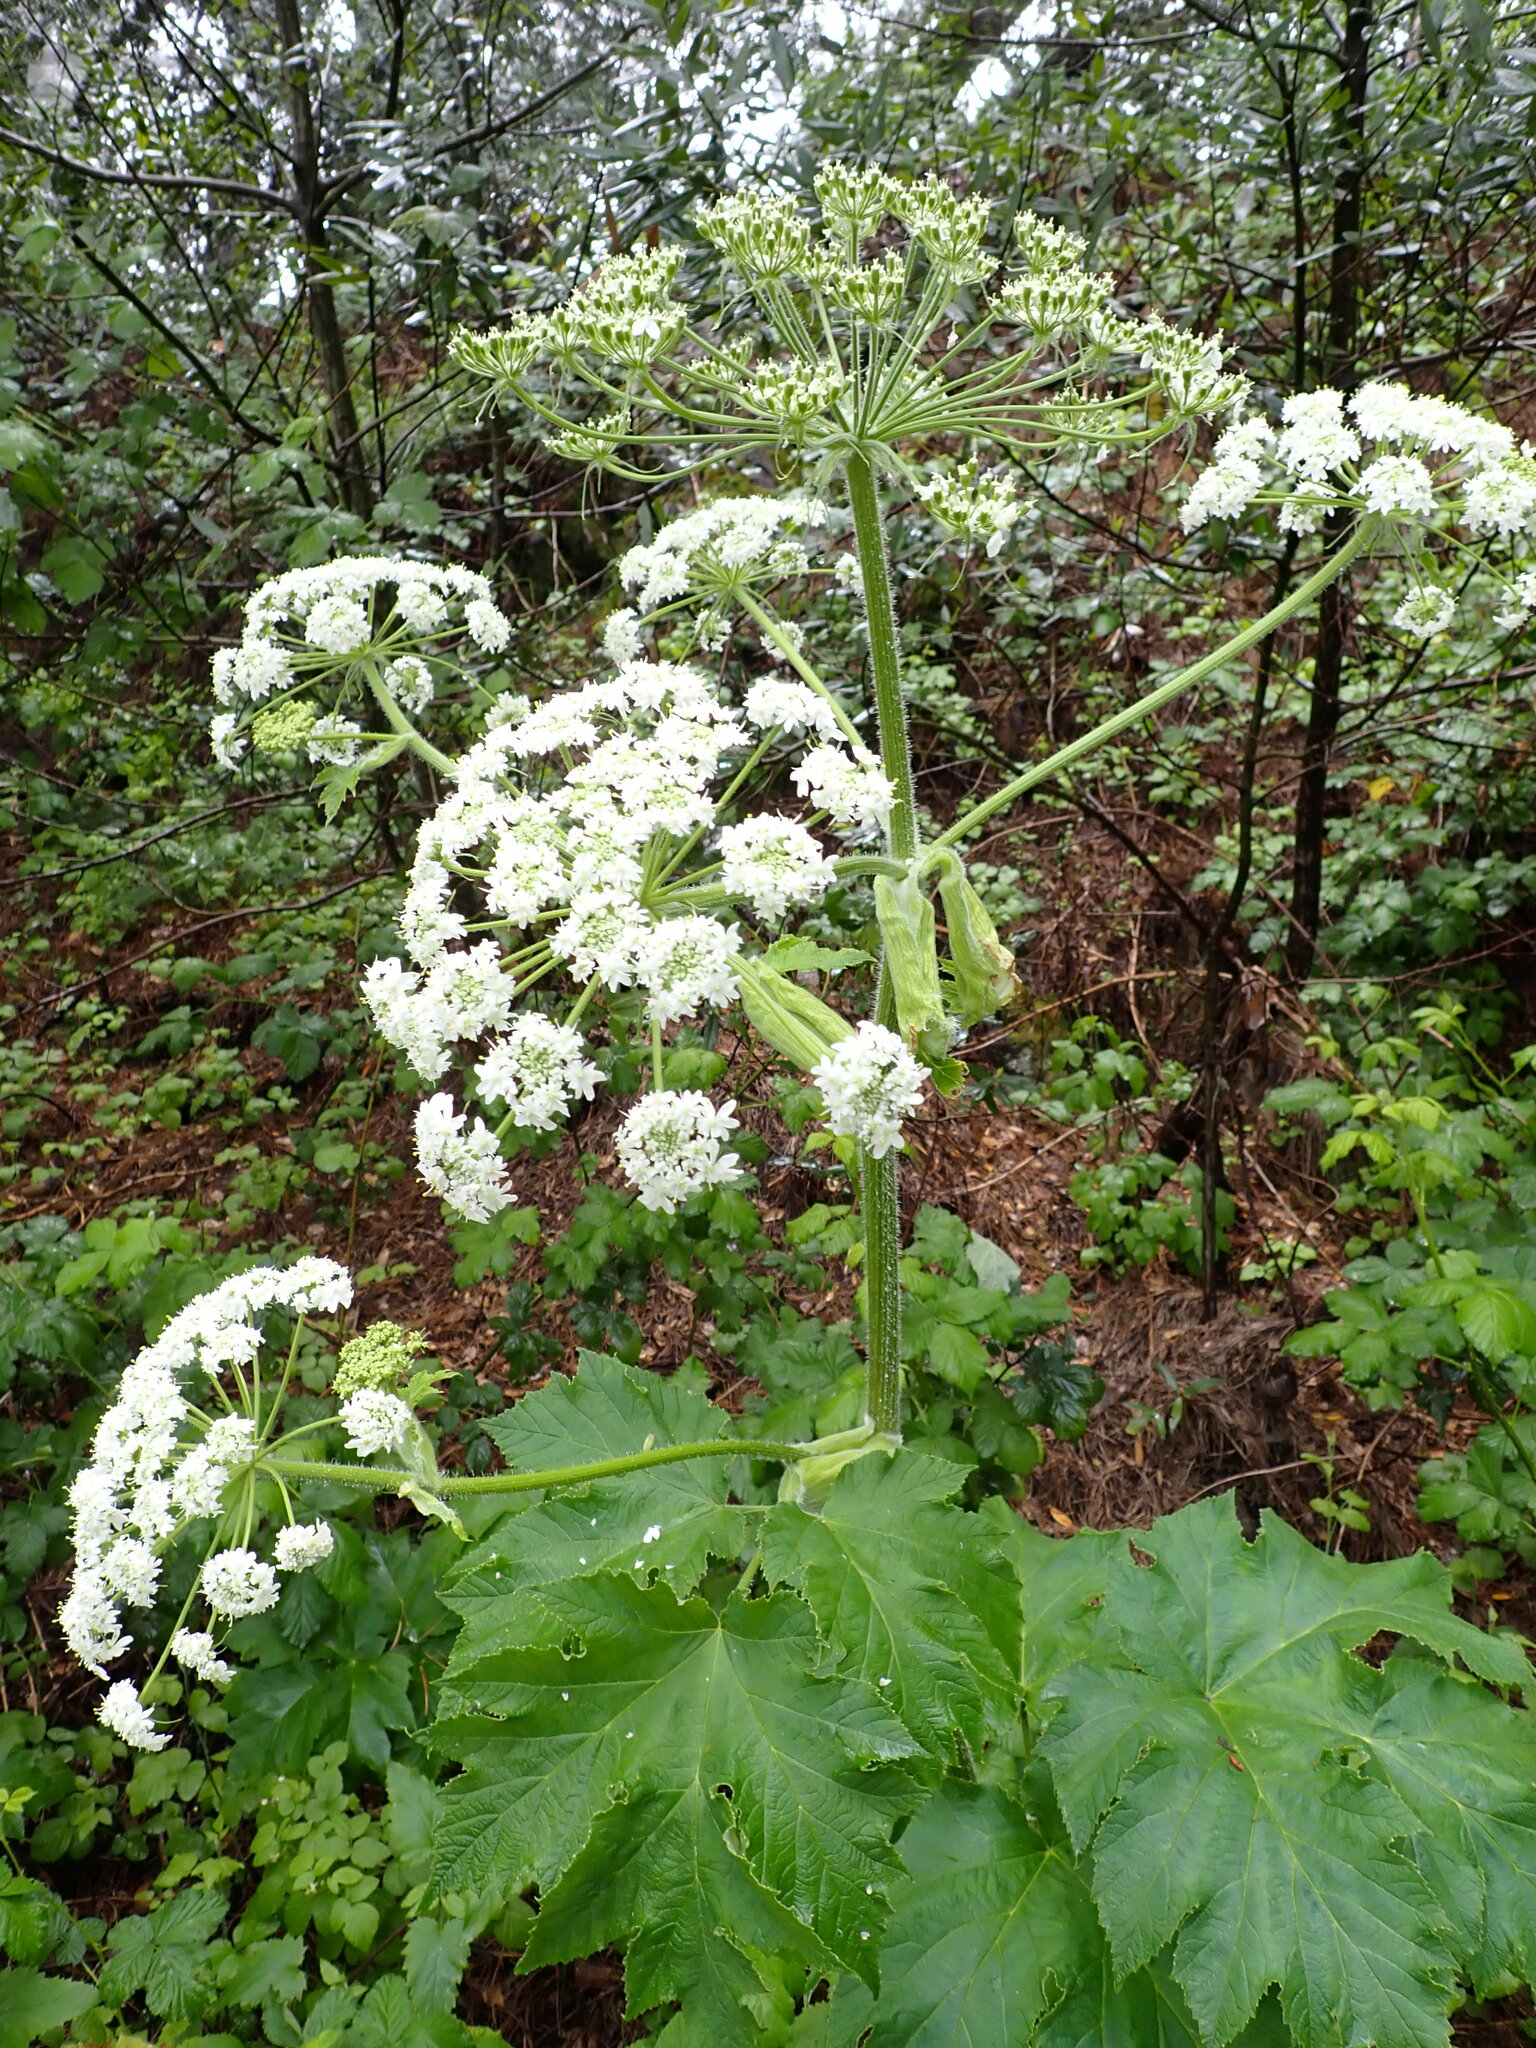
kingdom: Plantae
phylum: Tracheophyta
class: Magnoliopsida
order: Apiales
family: Apiaceae
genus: Heracleum
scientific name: Heracleum maximum
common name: American cow parsnip
